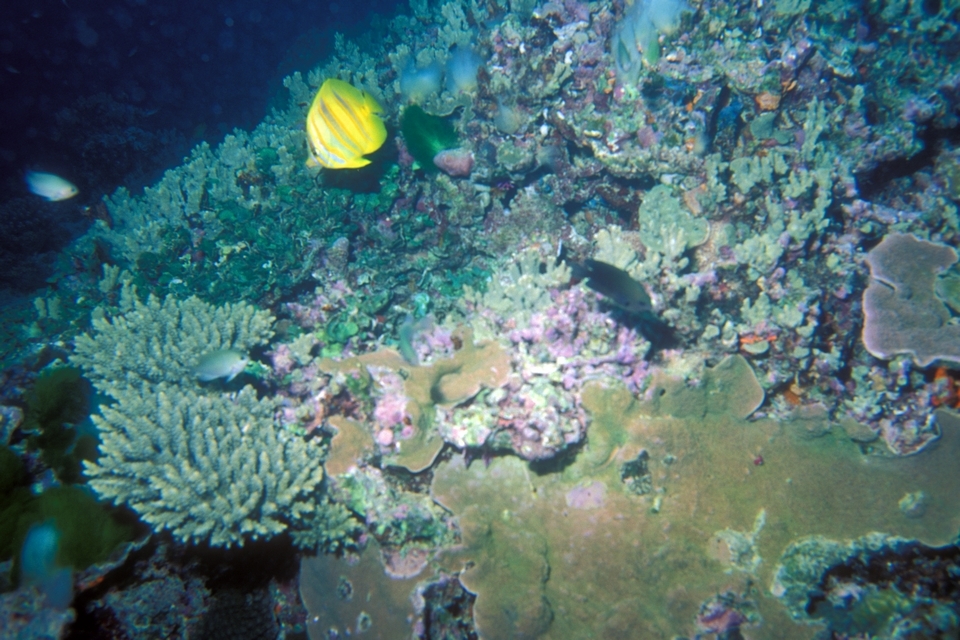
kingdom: Animalia
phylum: Chordata
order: Perciformes
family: Chaetodontidae
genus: Chaetodon
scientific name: Chaetodon rainfordi
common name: Rainford's butterflyfish
